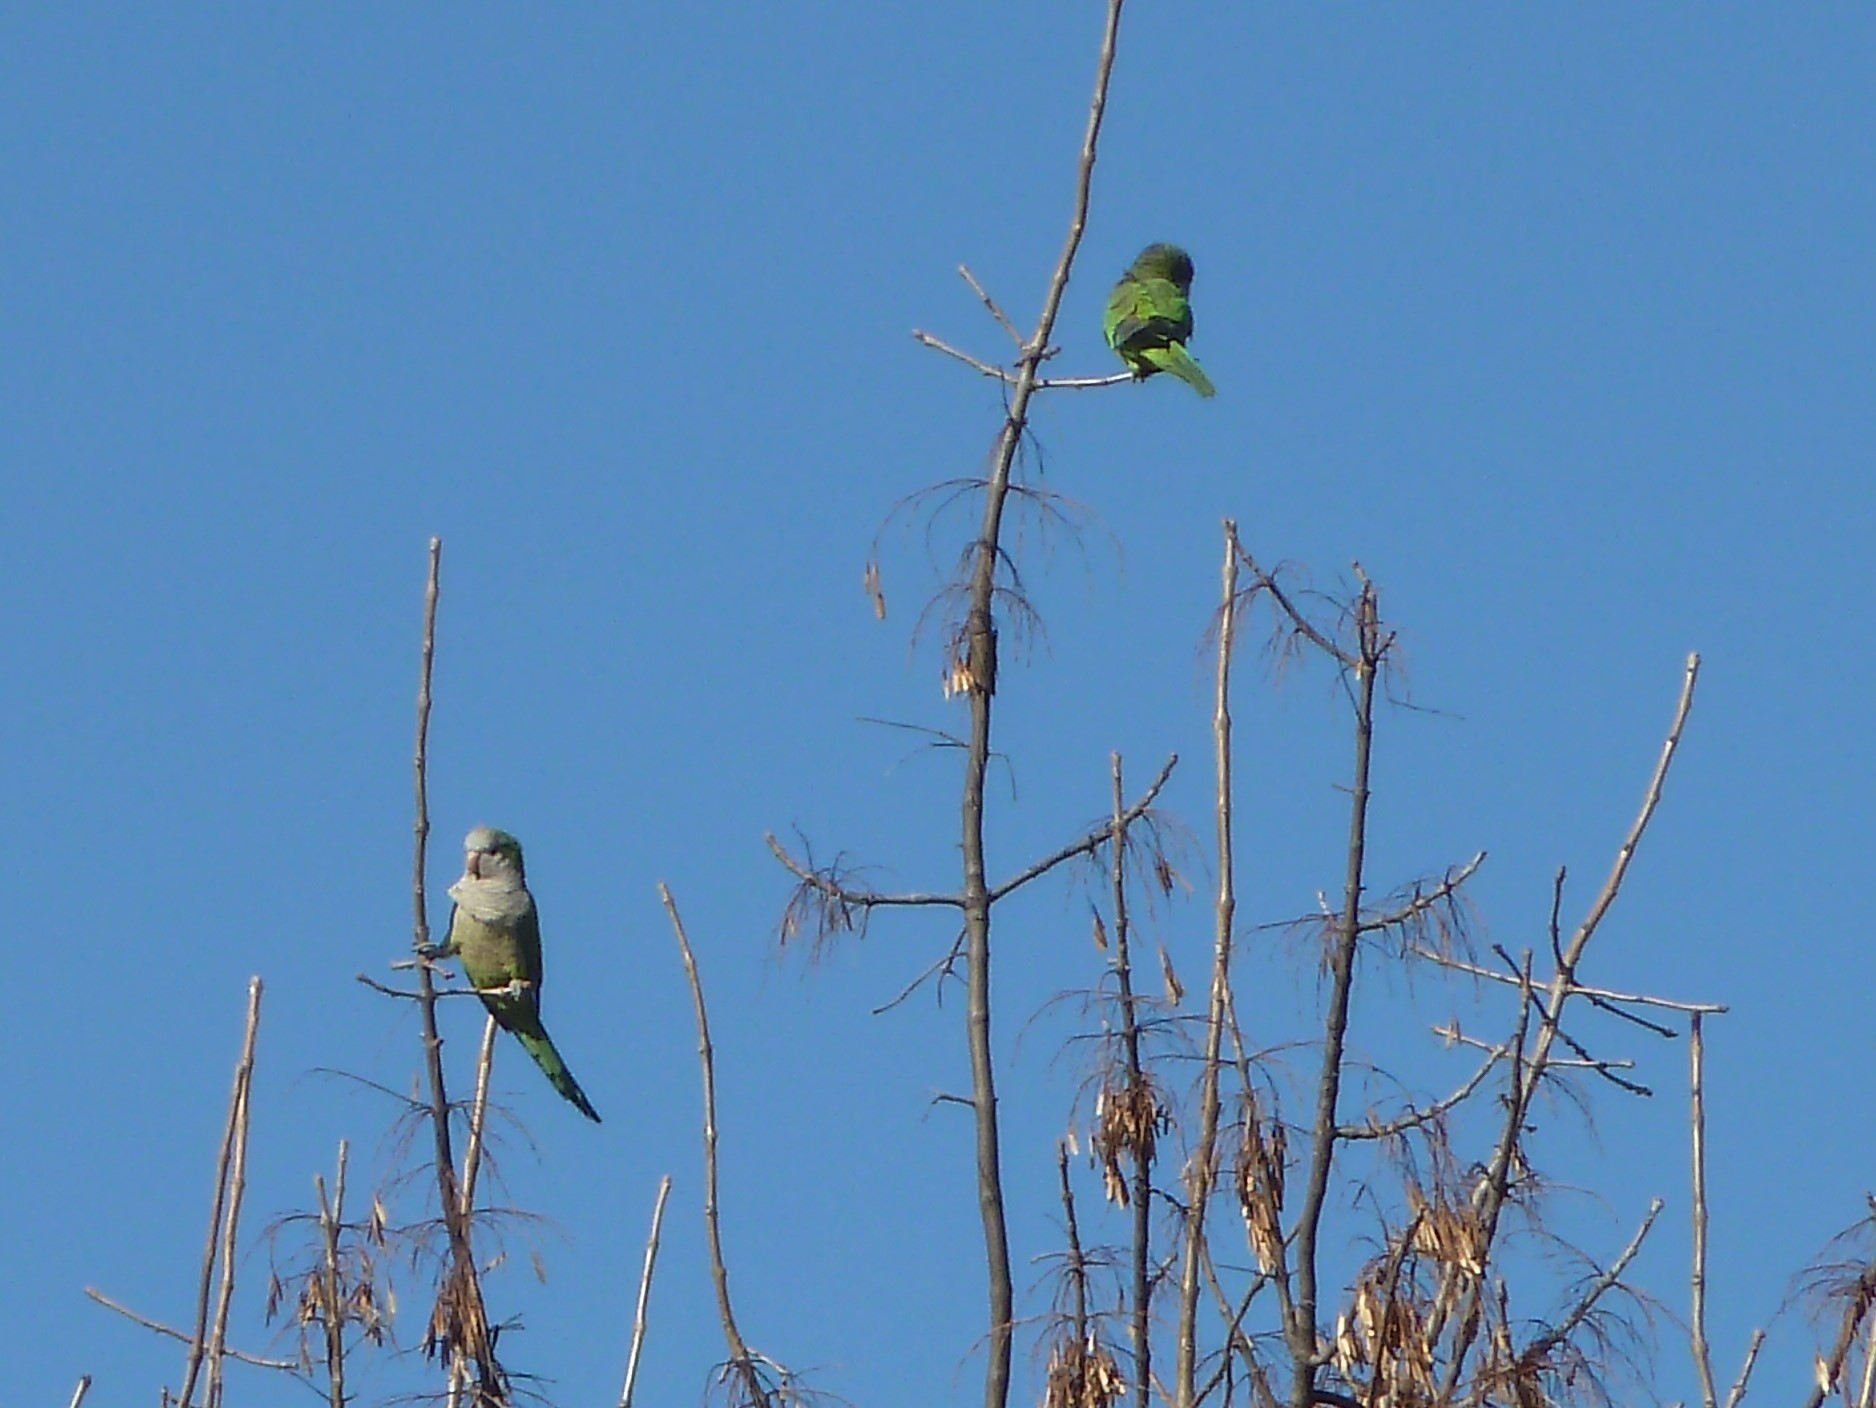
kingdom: Animalia
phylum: Chordata
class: Aves
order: Psittaciformes
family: Psittacidae
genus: Myiopsitta
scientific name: Myiopsitta monachus
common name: Monk parakeet
